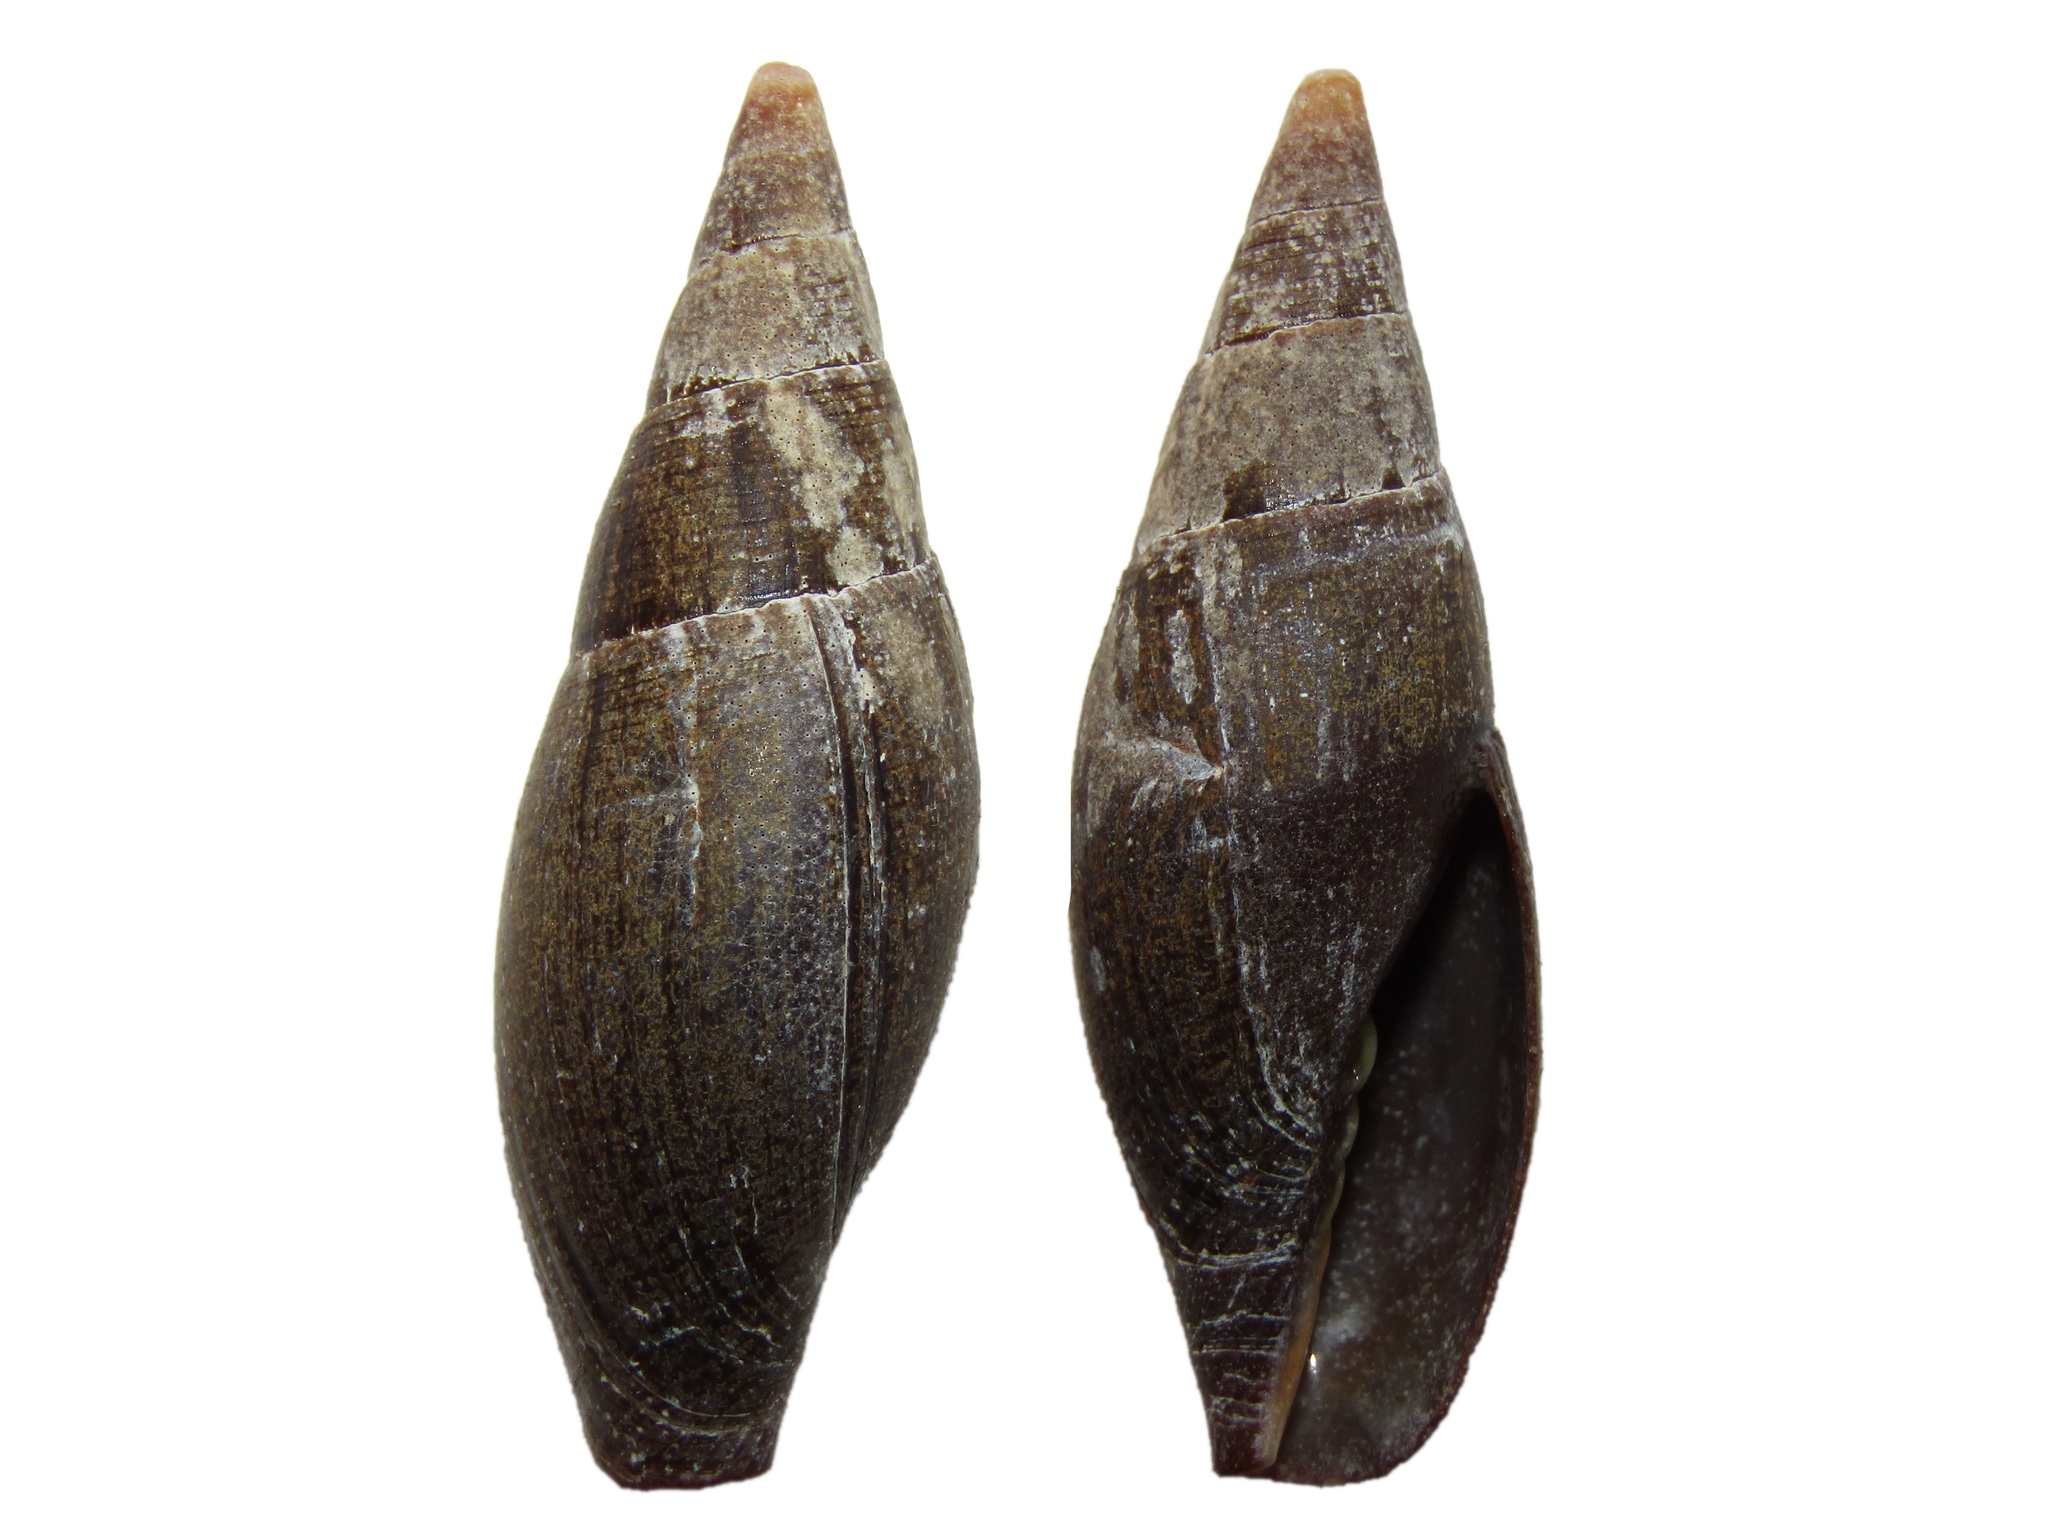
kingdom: Animalia
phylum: Mollusca
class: Gastropoda
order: Neogastropoda
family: Mitridae
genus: Isara
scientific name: Isara carbonaria
